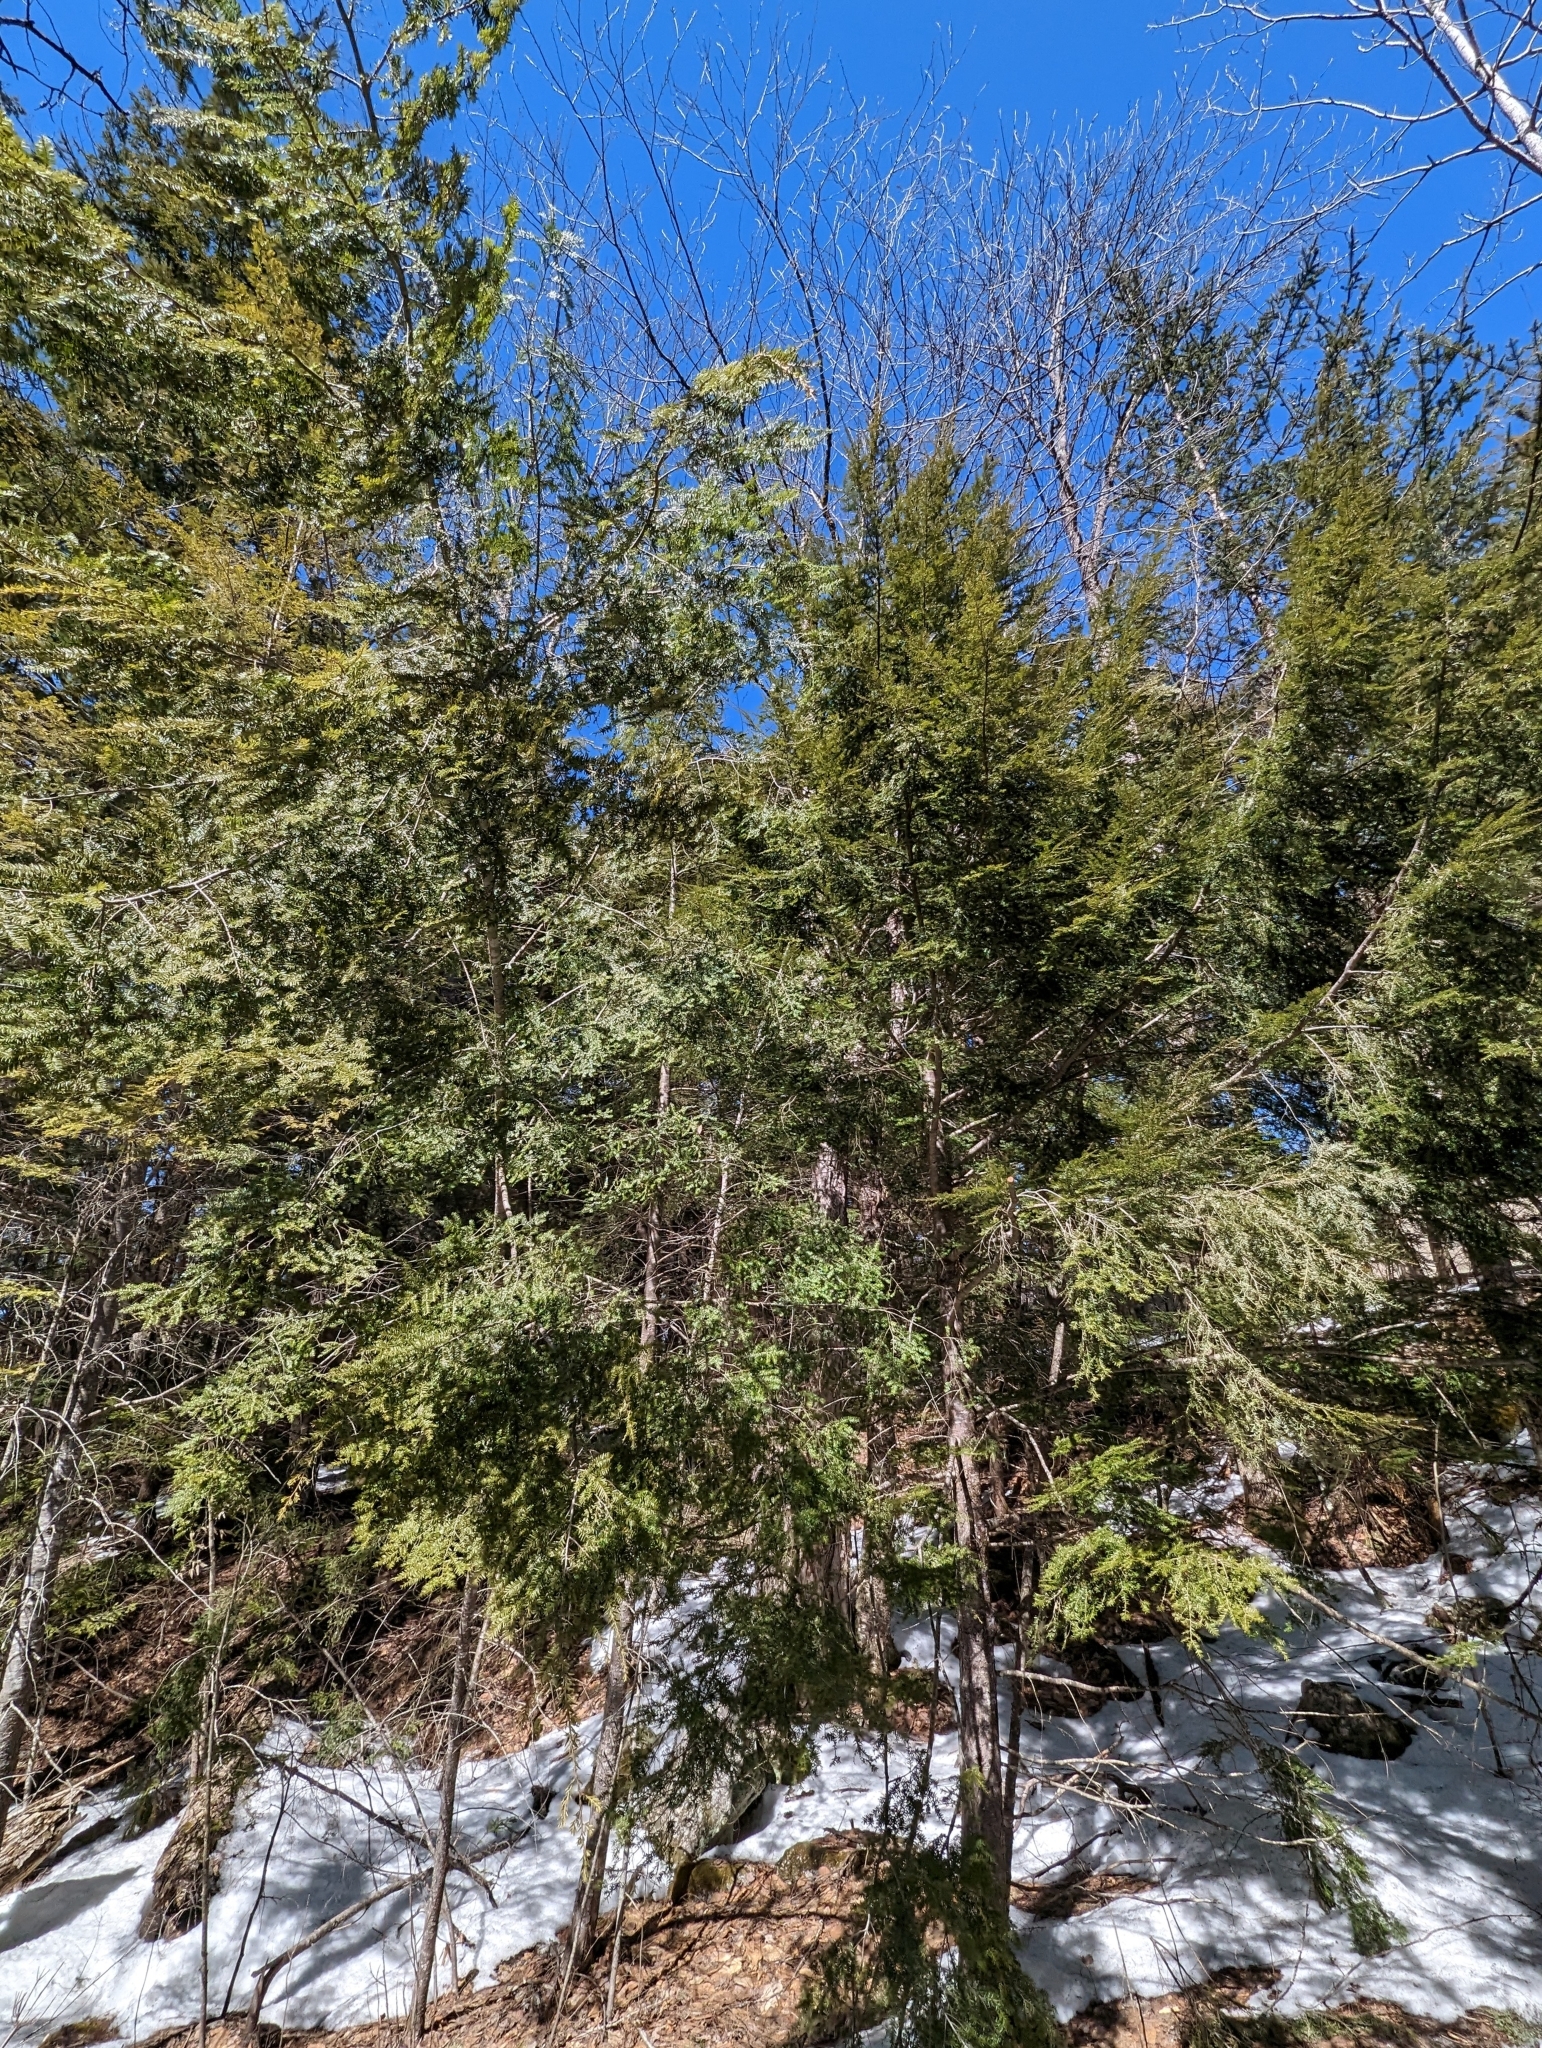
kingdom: Plantae
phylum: Tracheophyta
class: Pinopsida
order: Pinales
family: Pinaceae
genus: Tsuga
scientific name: Tsuga canadensis
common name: Eastern hemlock
